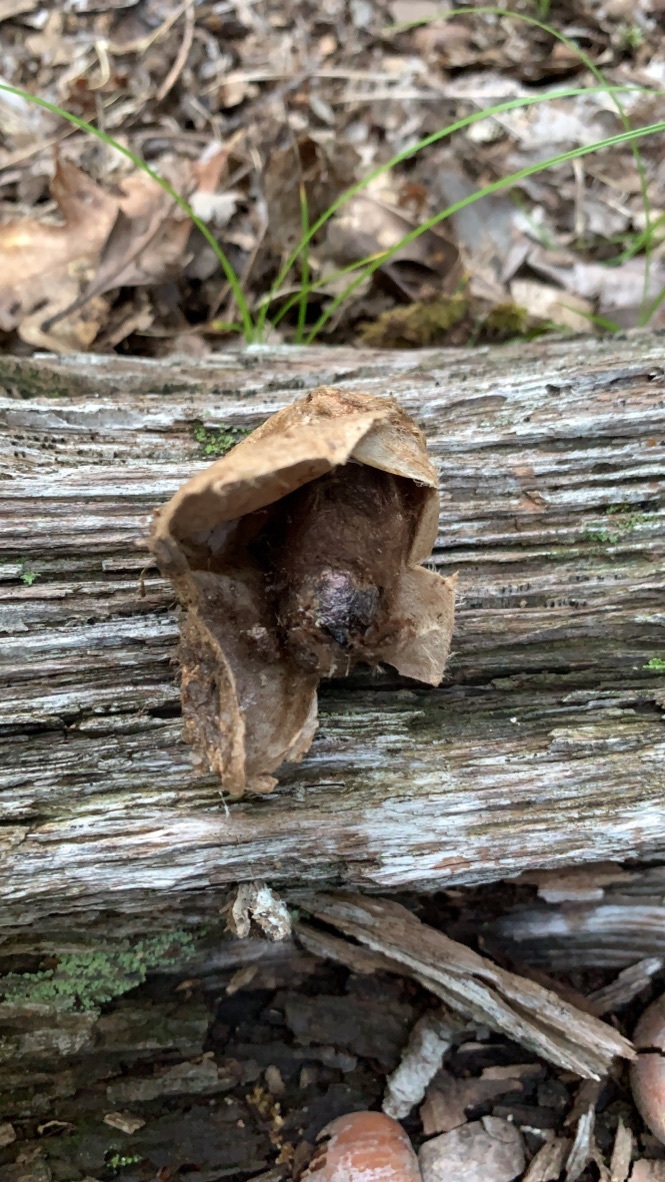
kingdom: Animalia
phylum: Arthropoda
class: Insecta
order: Lepidoptera
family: Saturniidae
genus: Hyalophora
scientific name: Hyalophora cecropia
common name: Cecropia silkmoth
